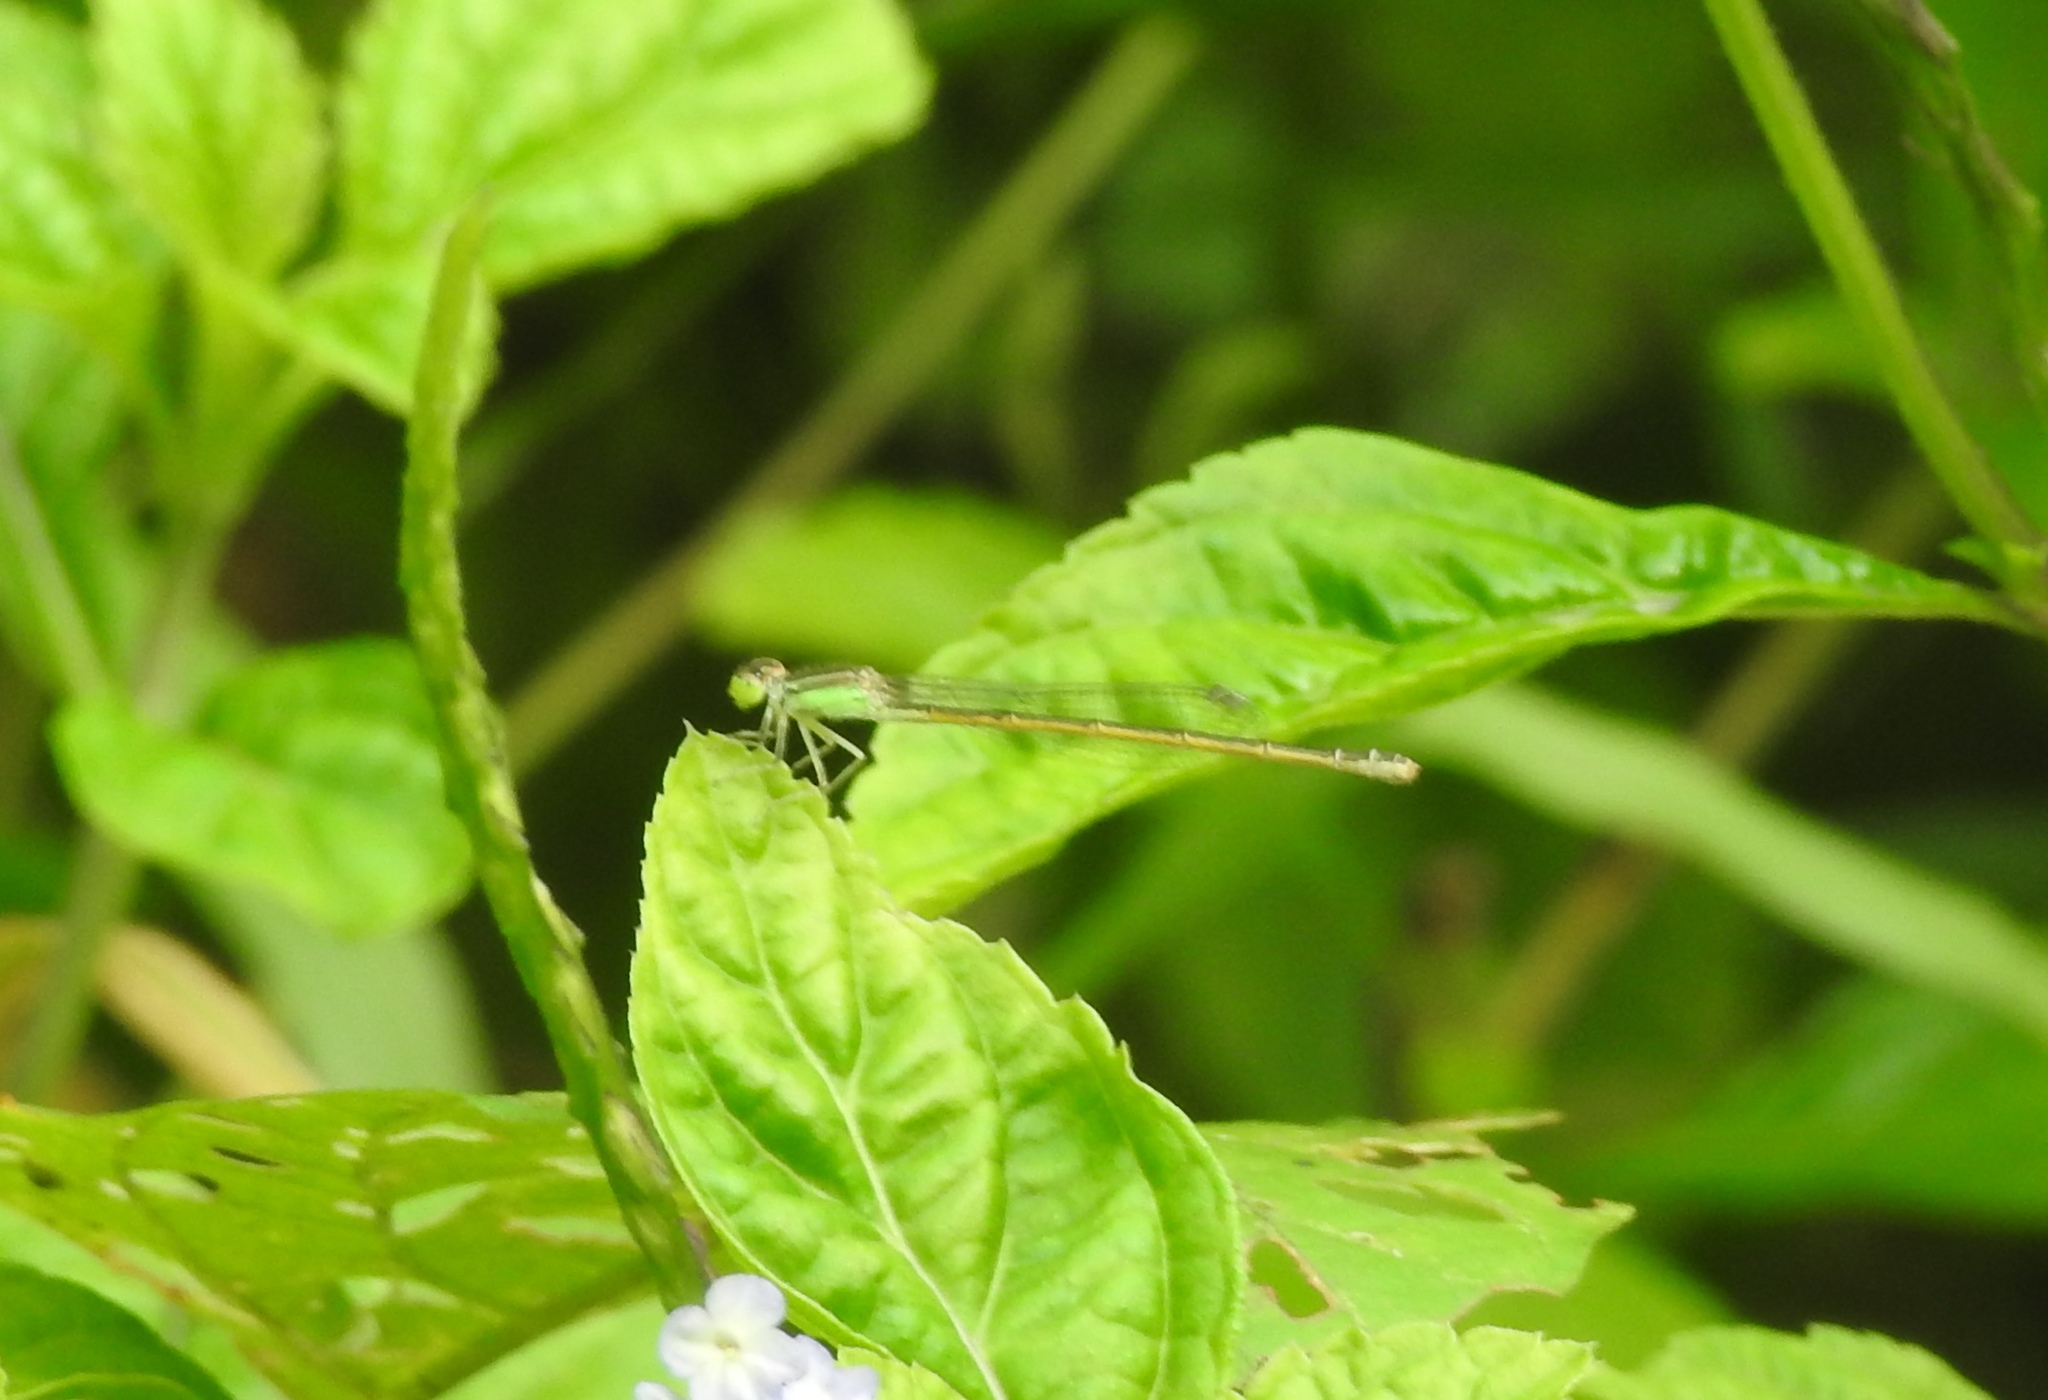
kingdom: Animalia
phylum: Arthropoda
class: Insecta
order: Odonata
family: Coenagrionidae
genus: Ischnura
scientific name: Ischnura rubilio
